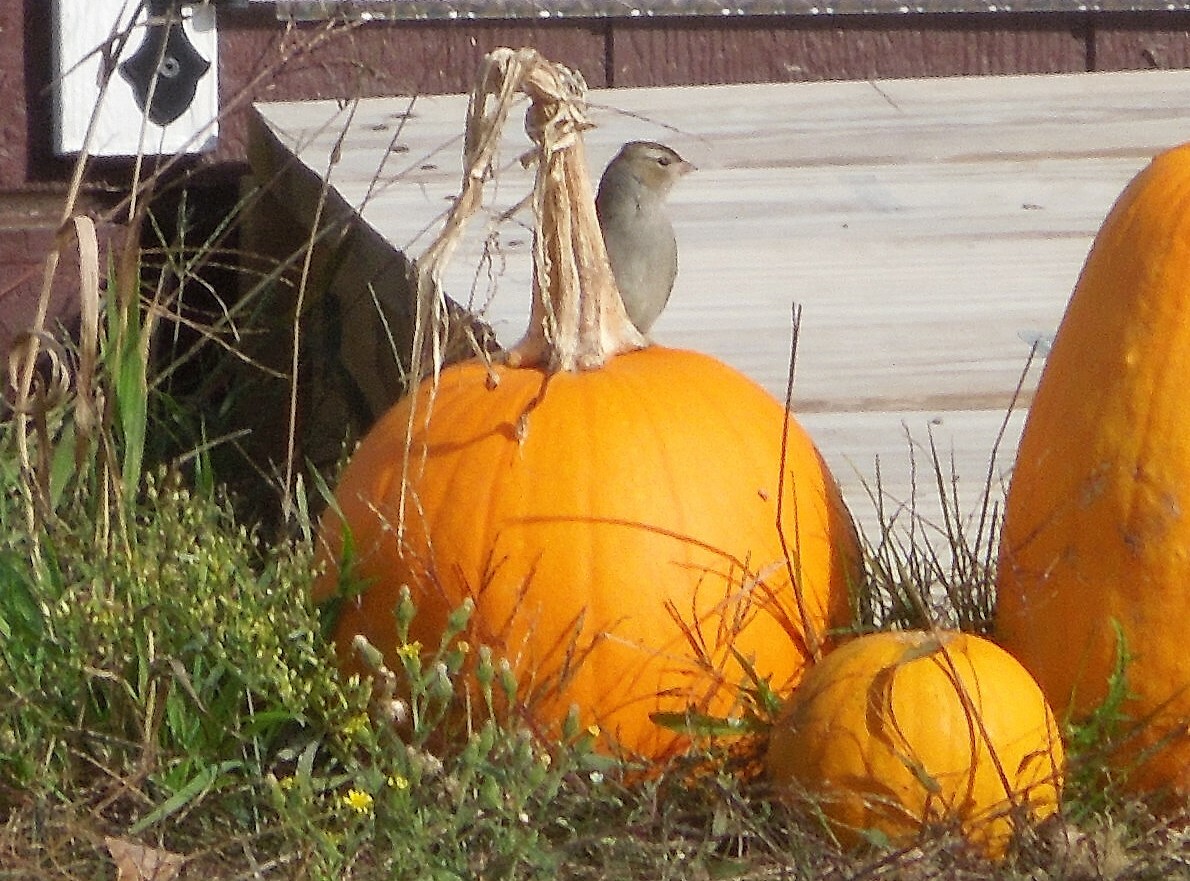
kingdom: Animalia
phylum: Chordata
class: Aves
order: Passeriformes
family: Passerellidae
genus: Zonotrichia
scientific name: Zonotrichia leucophrys
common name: White-crowned sparrow
